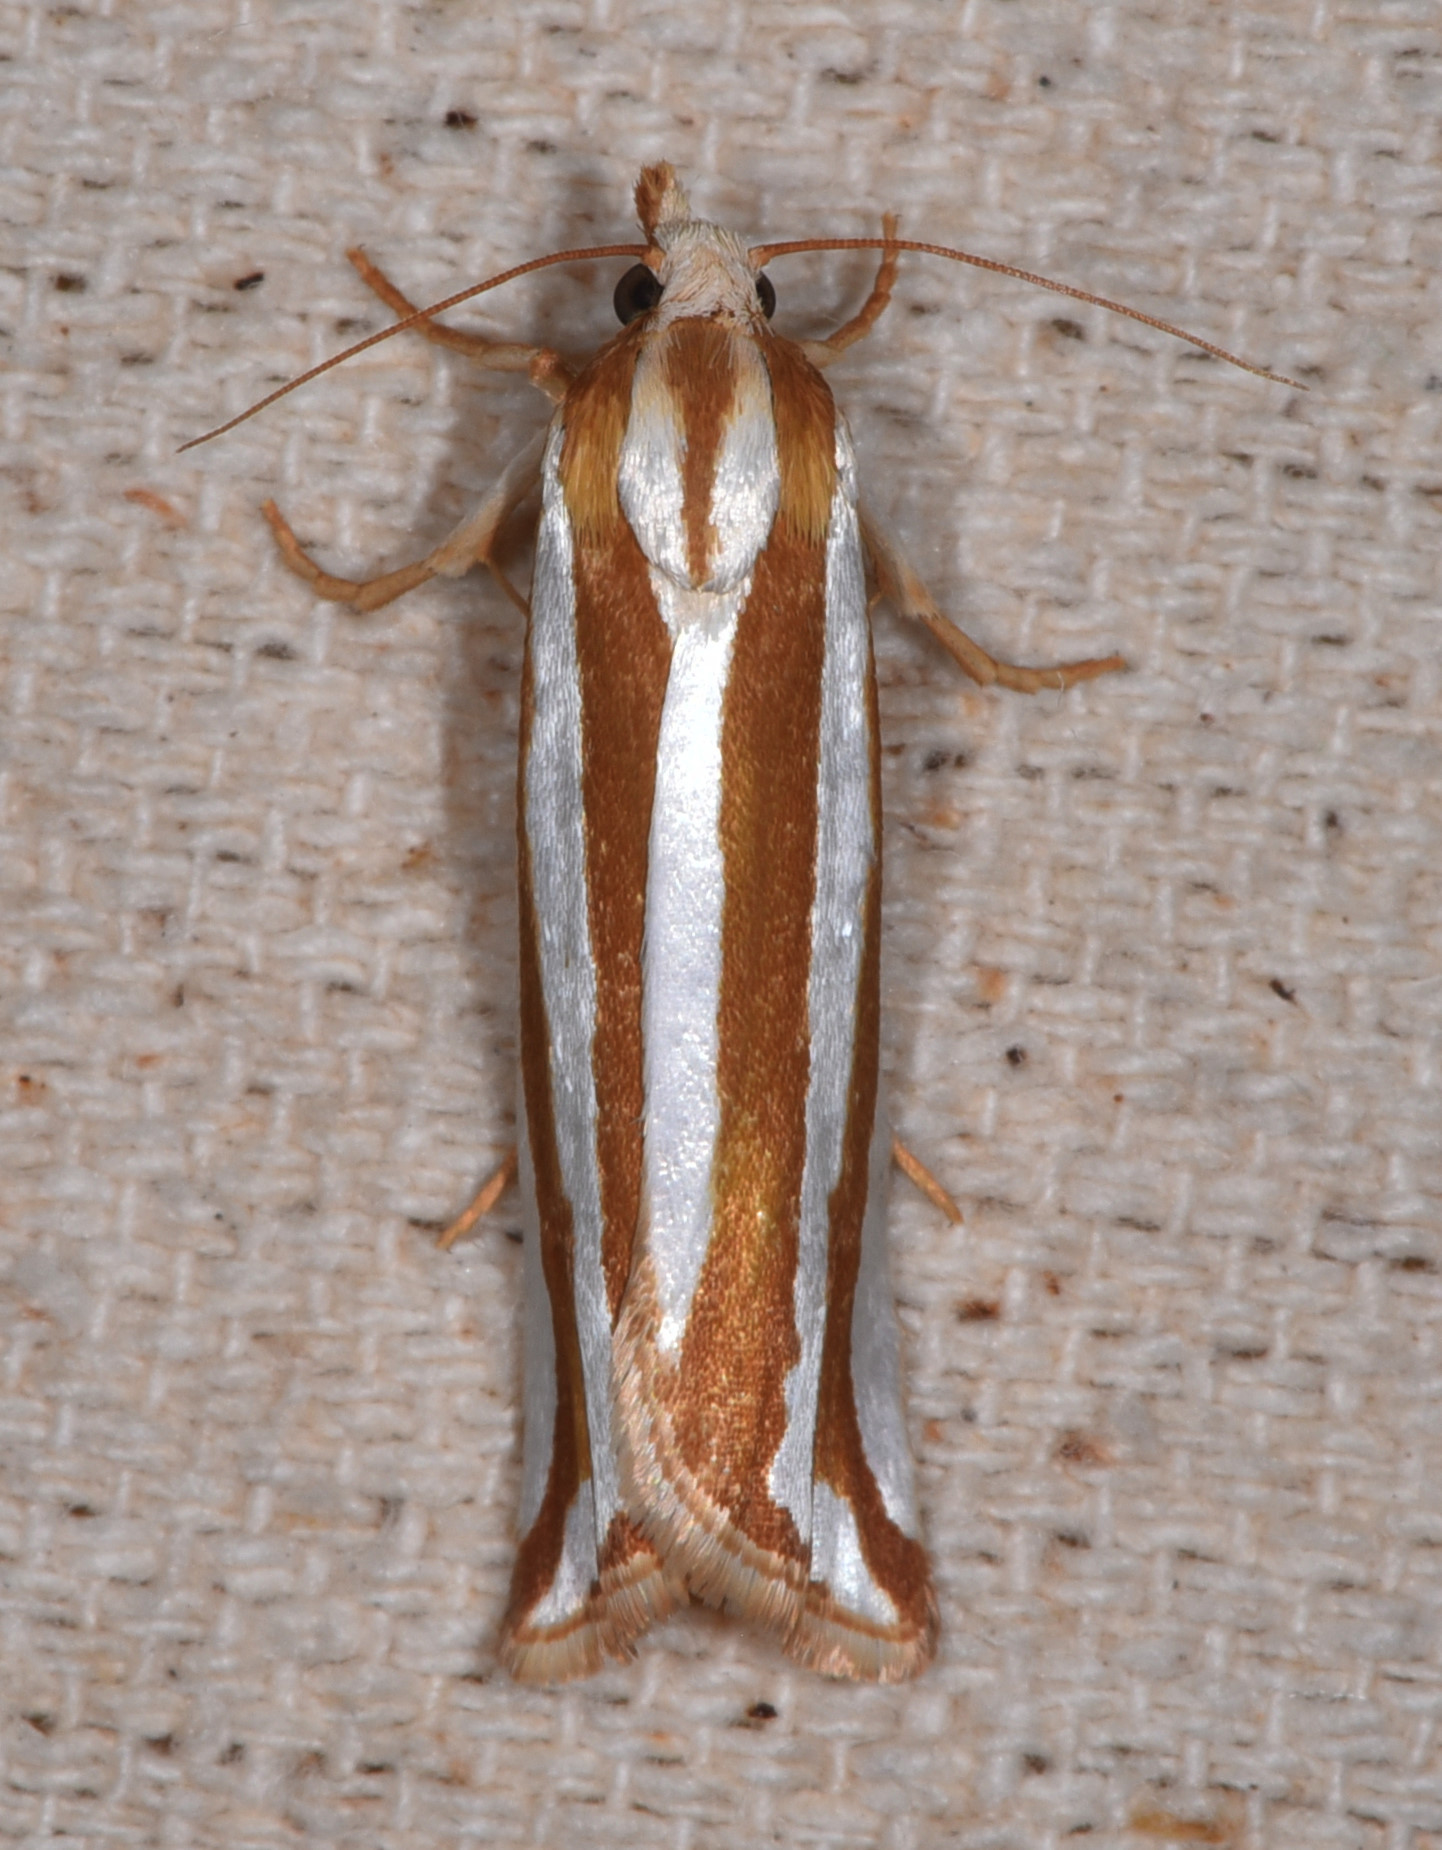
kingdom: Animalia
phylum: Arthropoda
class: Insecta
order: Lepidoptera
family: Tortricidae
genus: Pelochrista
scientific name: Pelochrista crambitana
